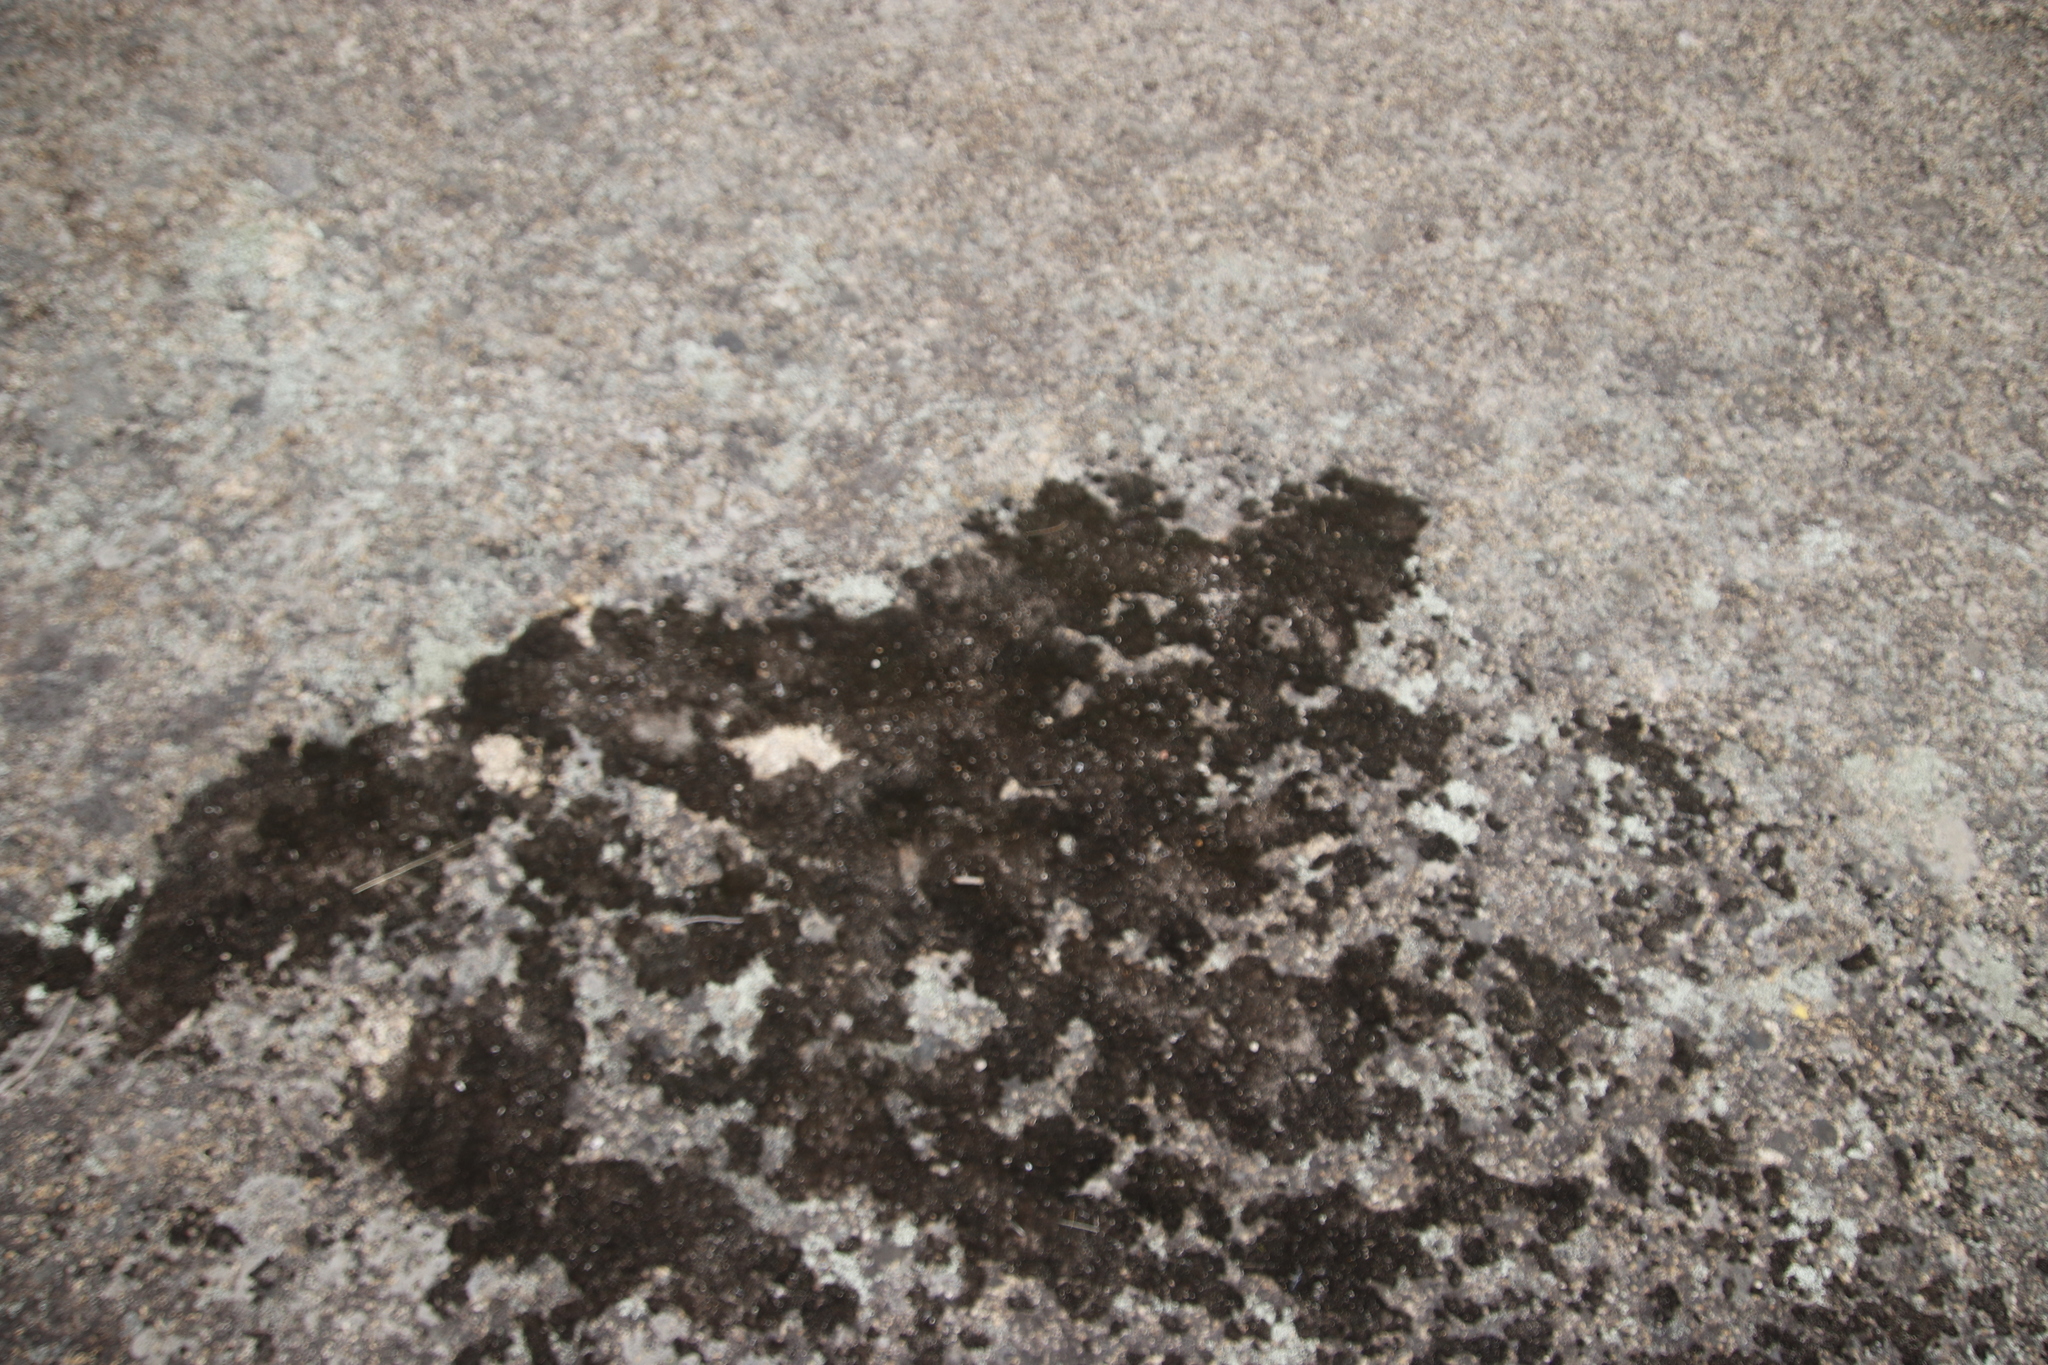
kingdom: Plantae
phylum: Bryophyta
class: Bryopsida
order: Grimmiales
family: Grimmiaceae
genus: Grimmia
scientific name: Grimmia laevigata
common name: Hoary grimmia
